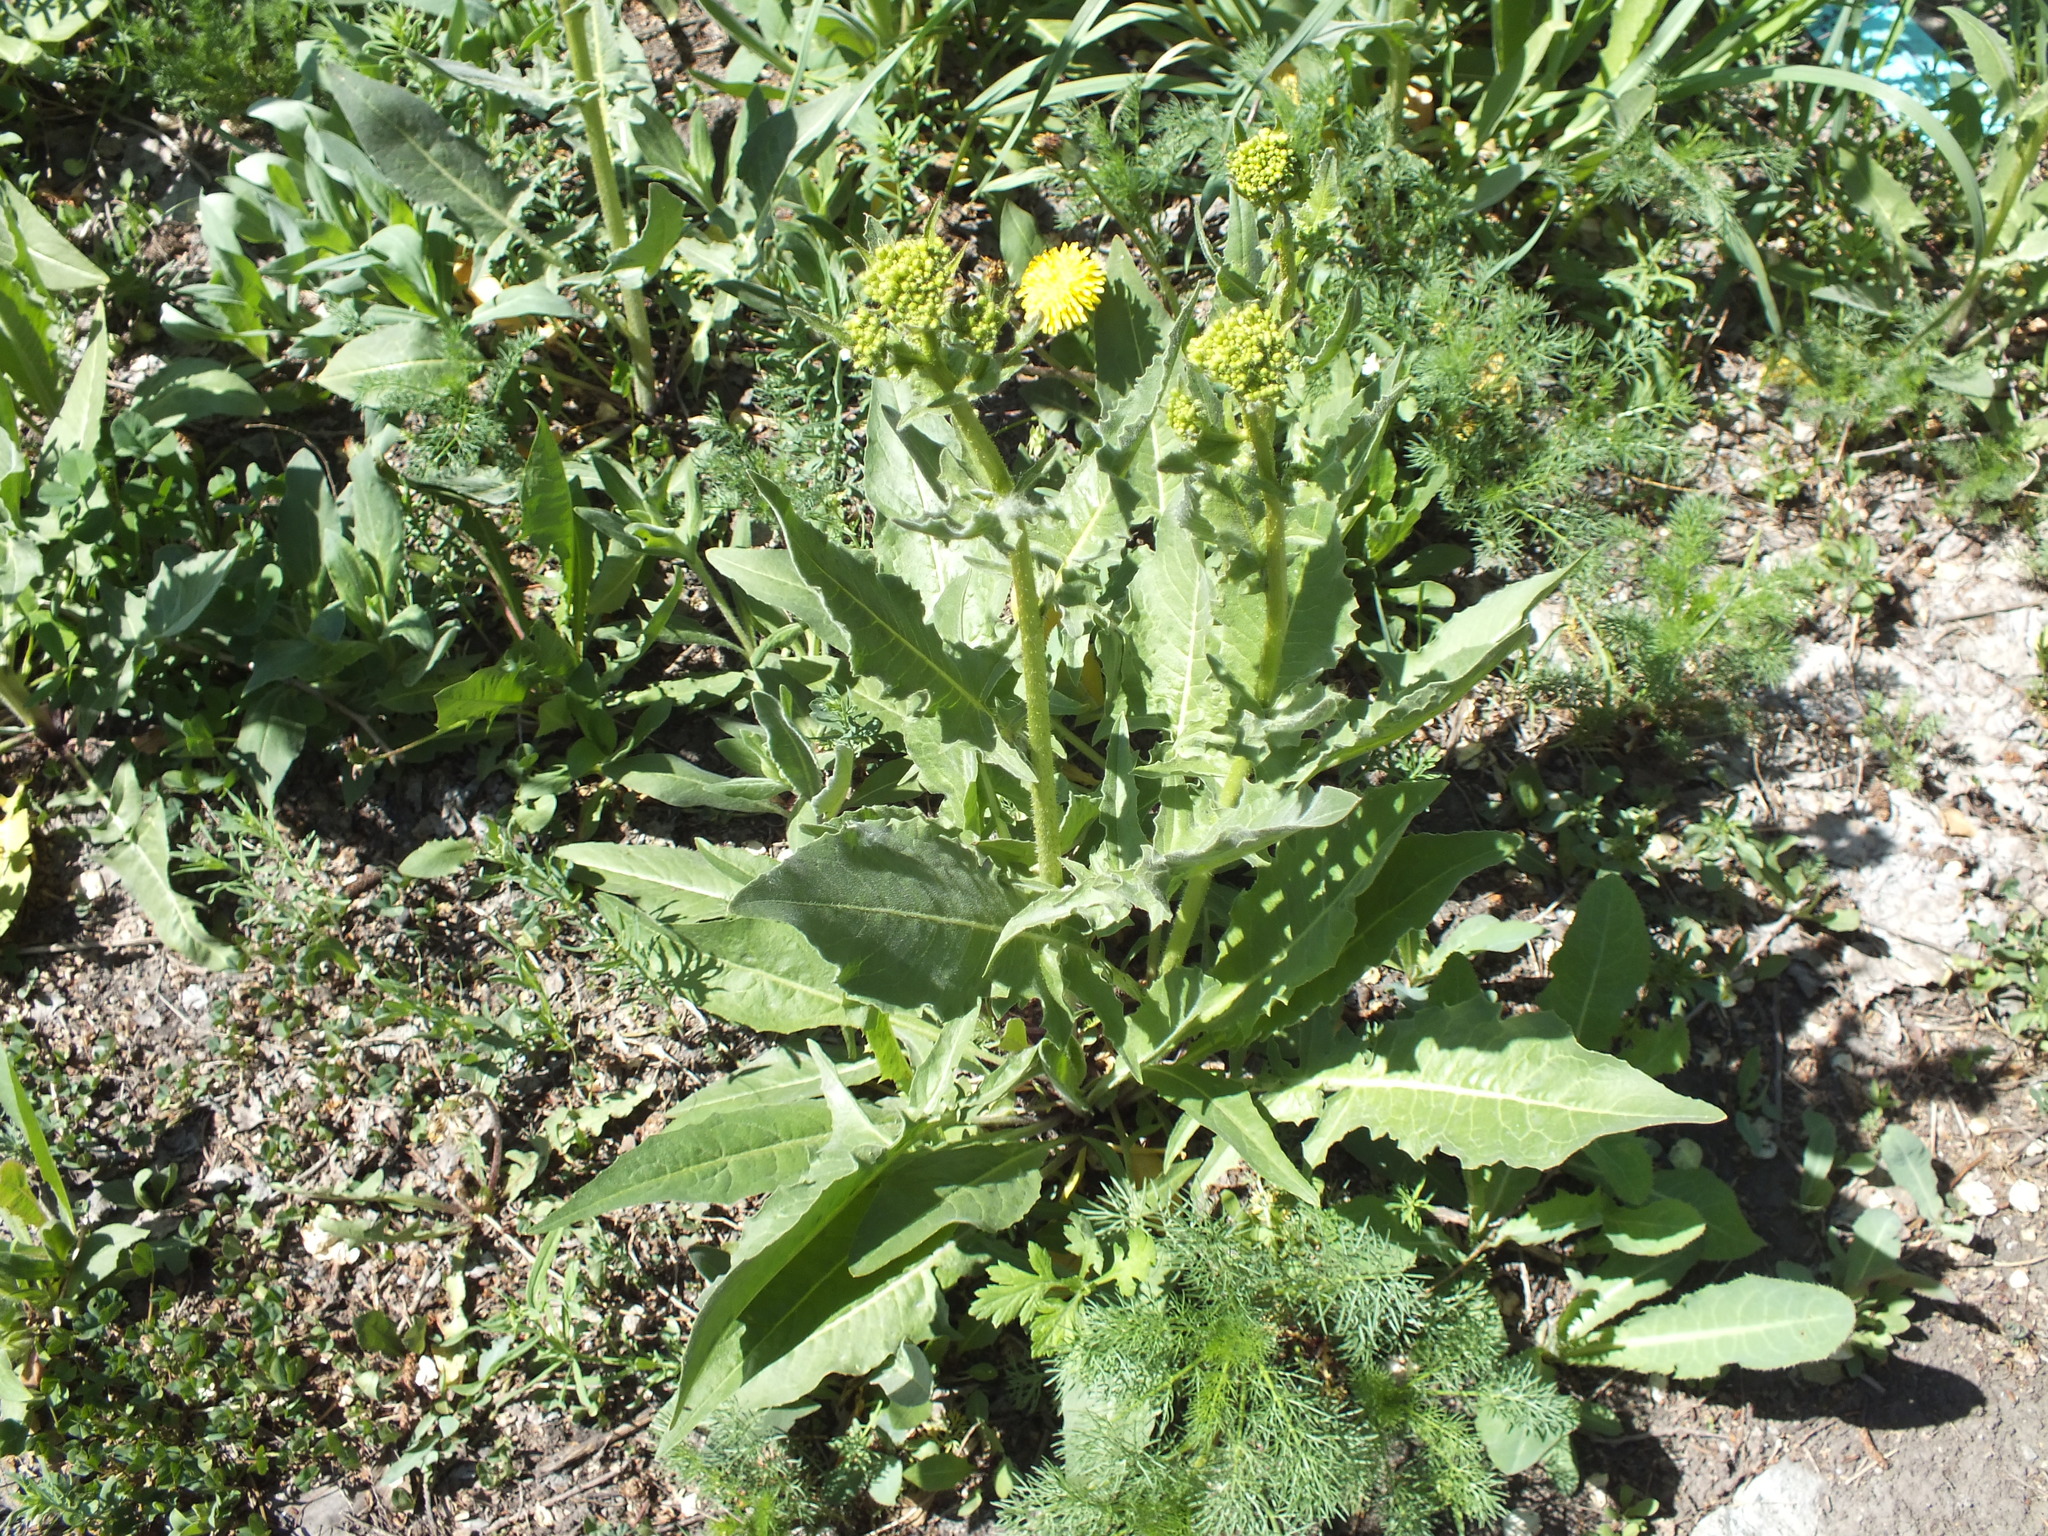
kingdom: Plantae
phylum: Tracheophyta
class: Magnoliopsida
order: Brassicales
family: Brassicaceae
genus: Bunias
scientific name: Bunias orientalis
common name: Warty-cabbage
